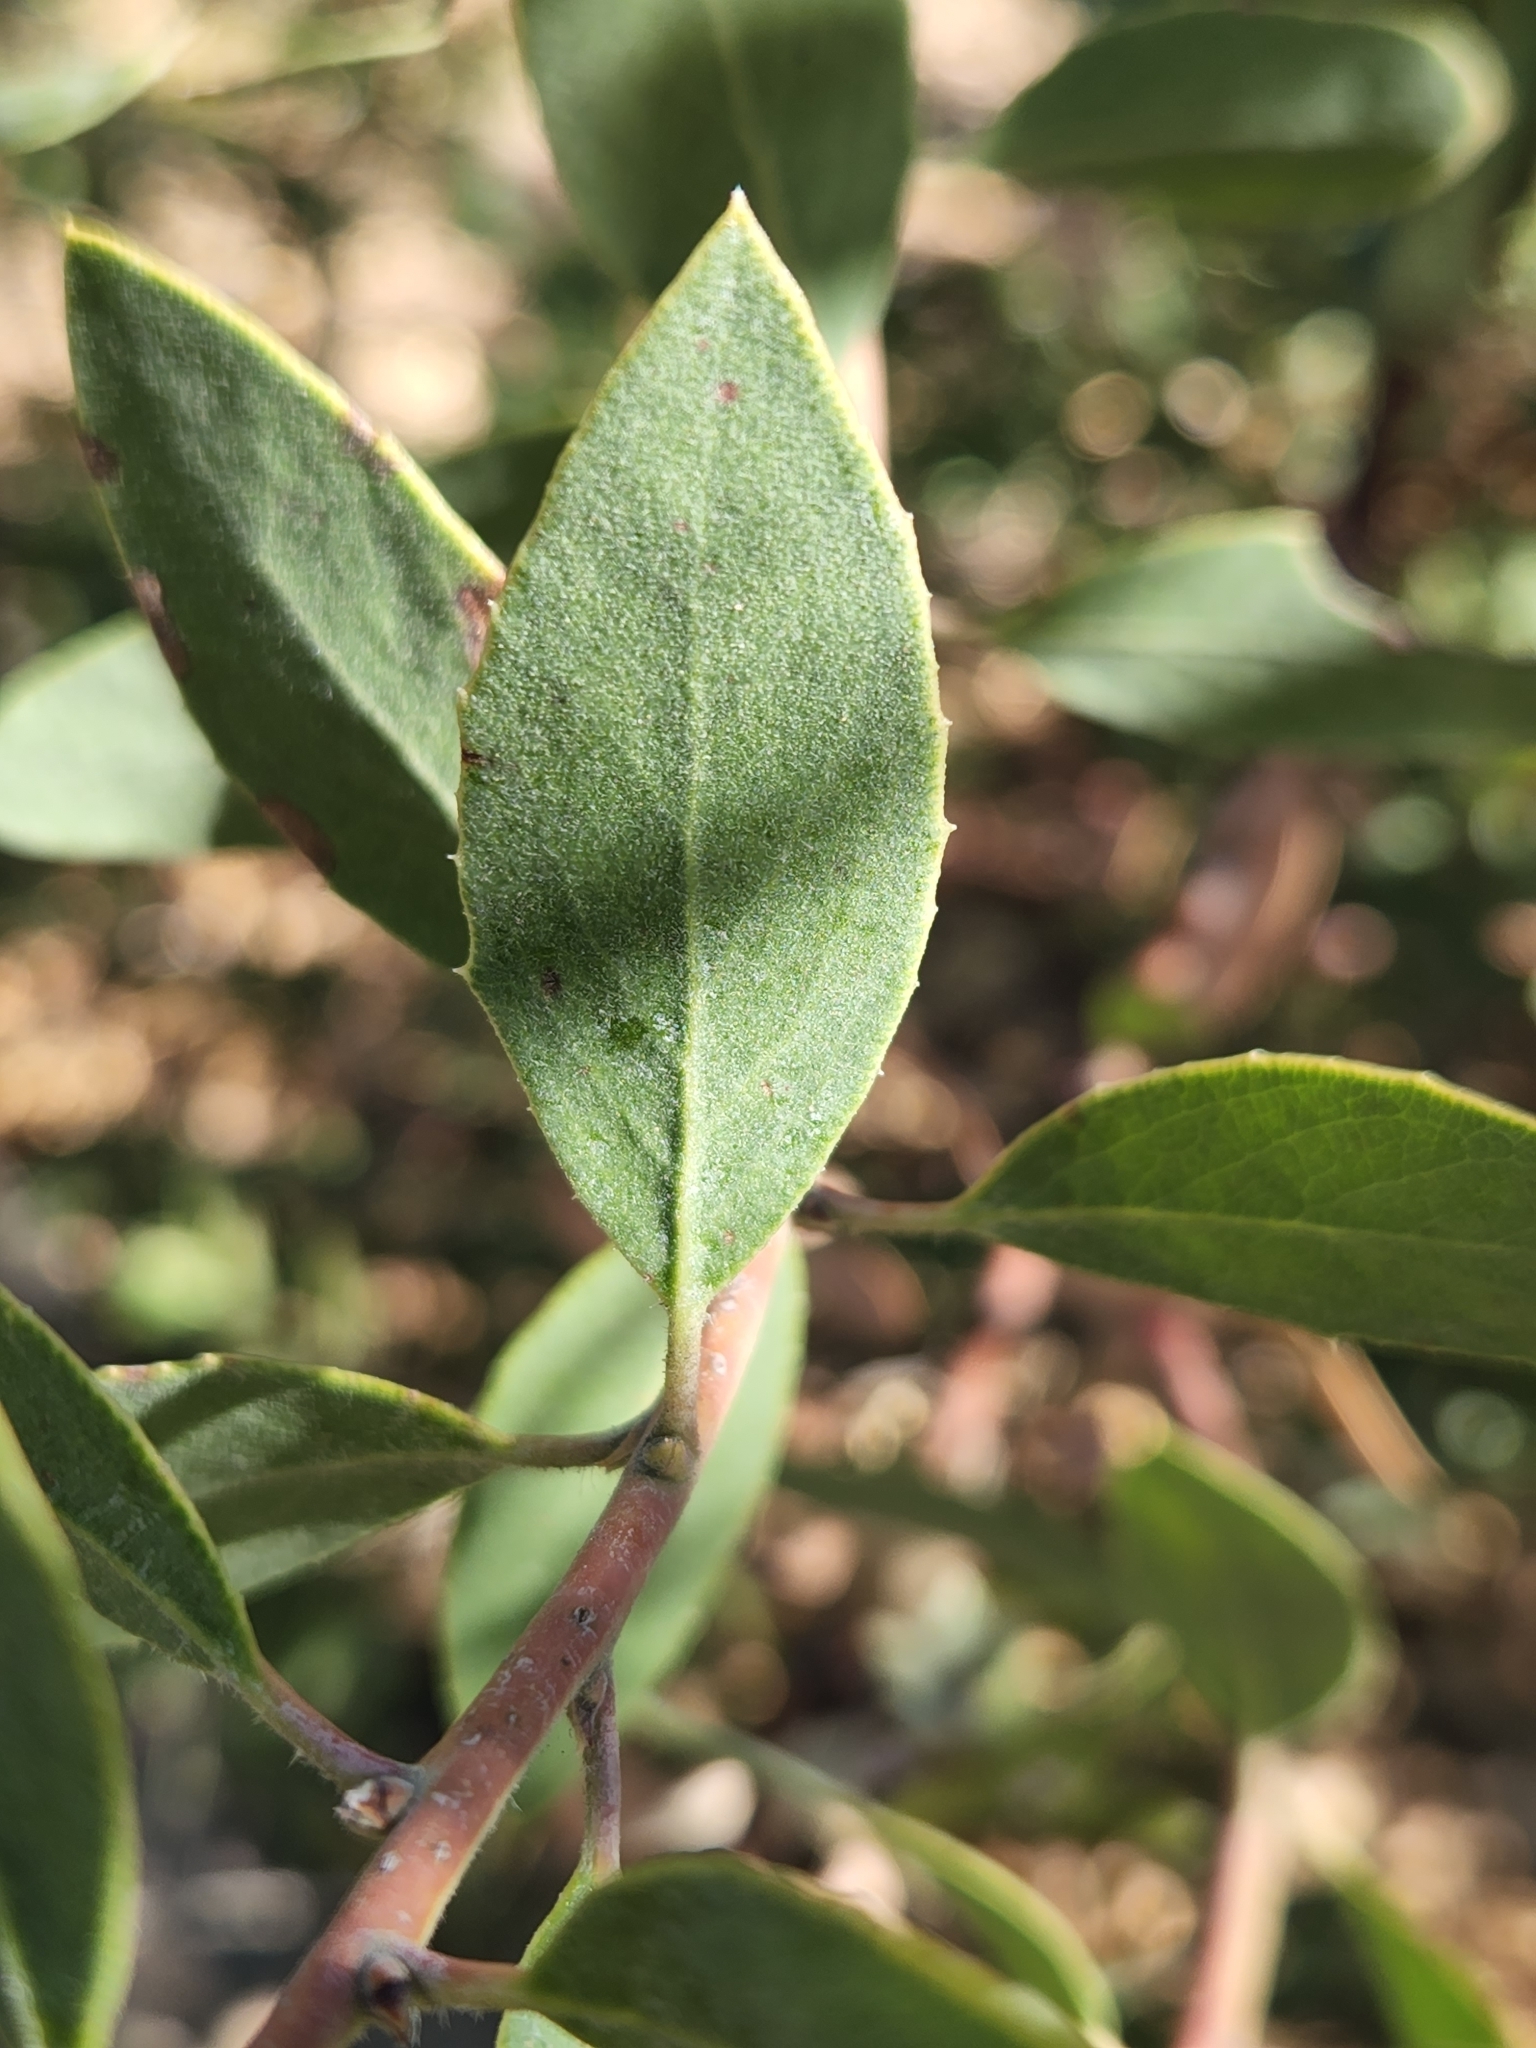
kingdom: Plantae
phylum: Tracheophyta
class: Magnoliopsida
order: Ericales
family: Ericaceae
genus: Arctostaphylos
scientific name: Arctostaphylos glandulosa
